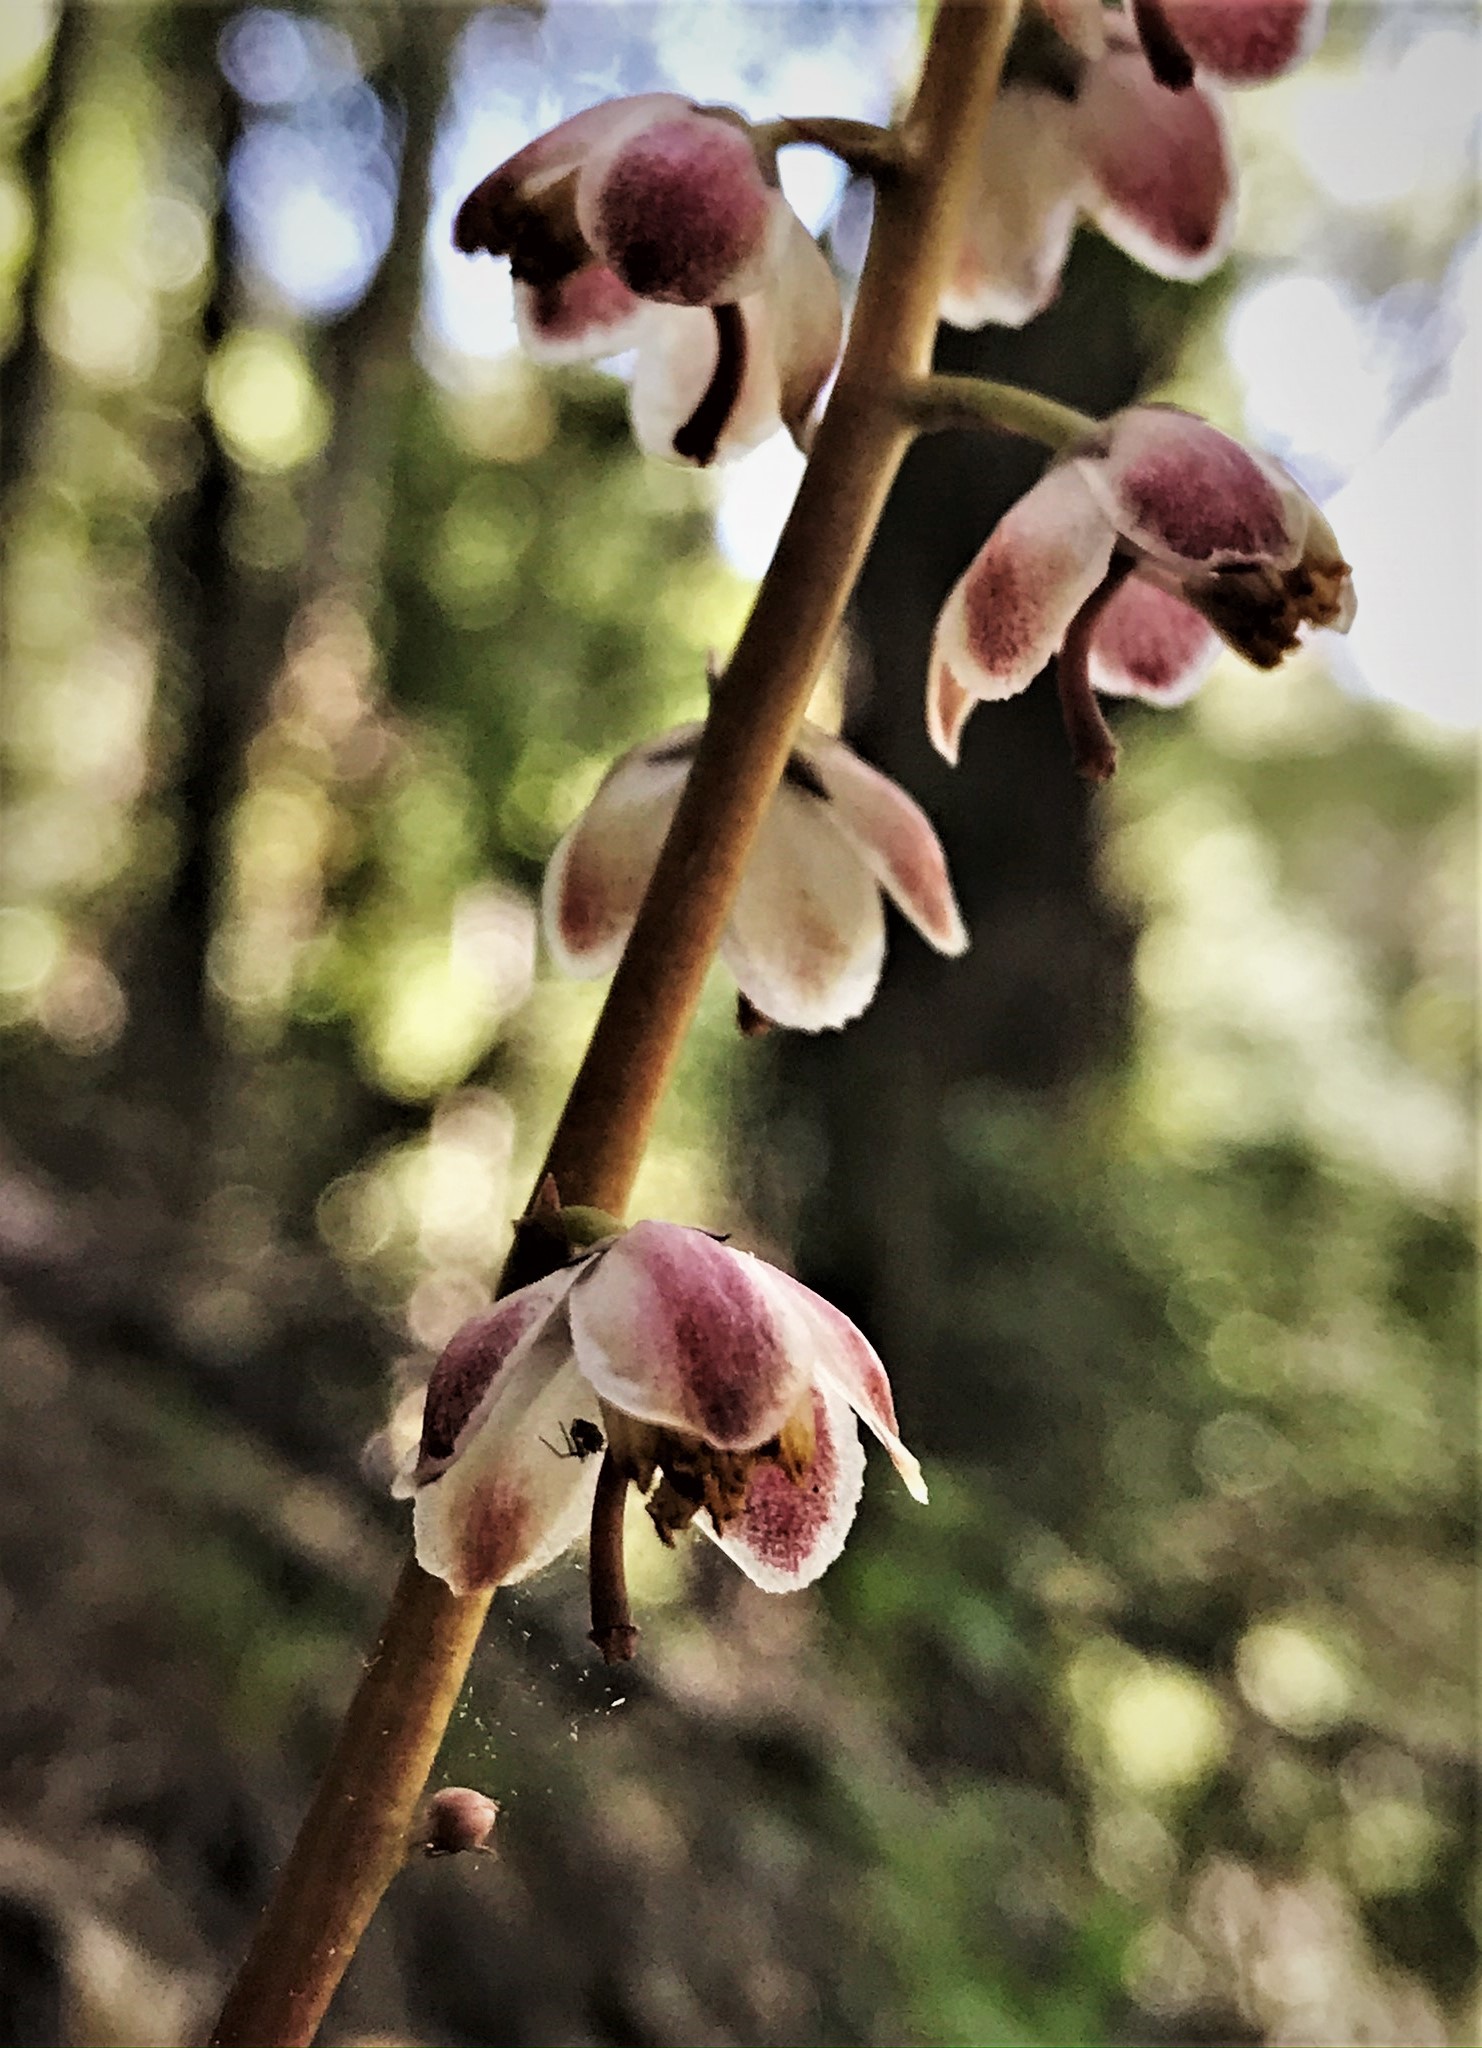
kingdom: Plantae
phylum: Tracheophyta
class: Magnoliopsida
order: Ericales
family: Ericaceae
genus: Pyrola
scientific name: Pyrola aphylla
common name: Leafless wintergreen
